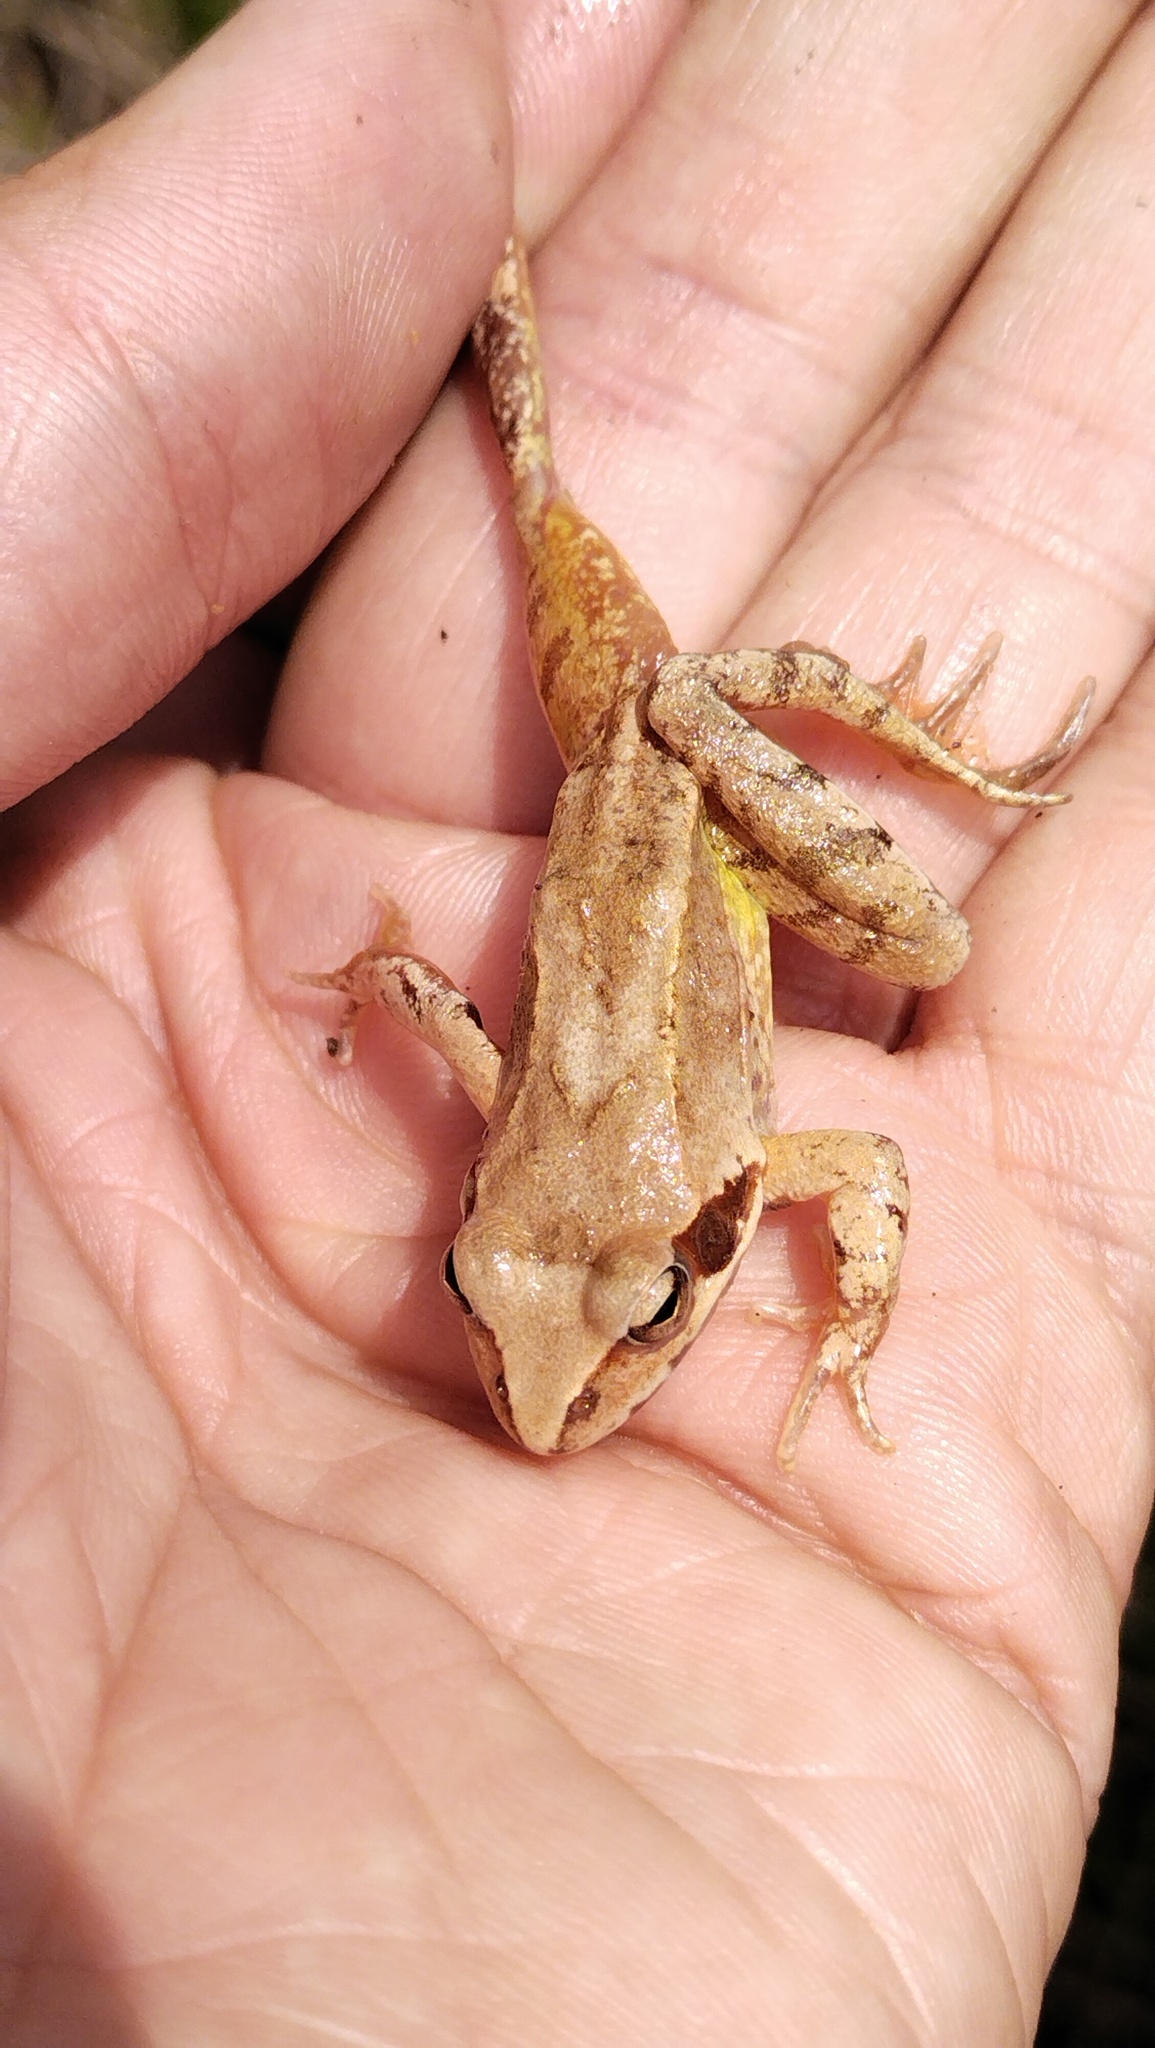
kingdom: Animalia
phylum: Chordata
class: Amphibia
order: Anura
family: Ranidae
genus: Rana
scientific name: Rana dybowskii
